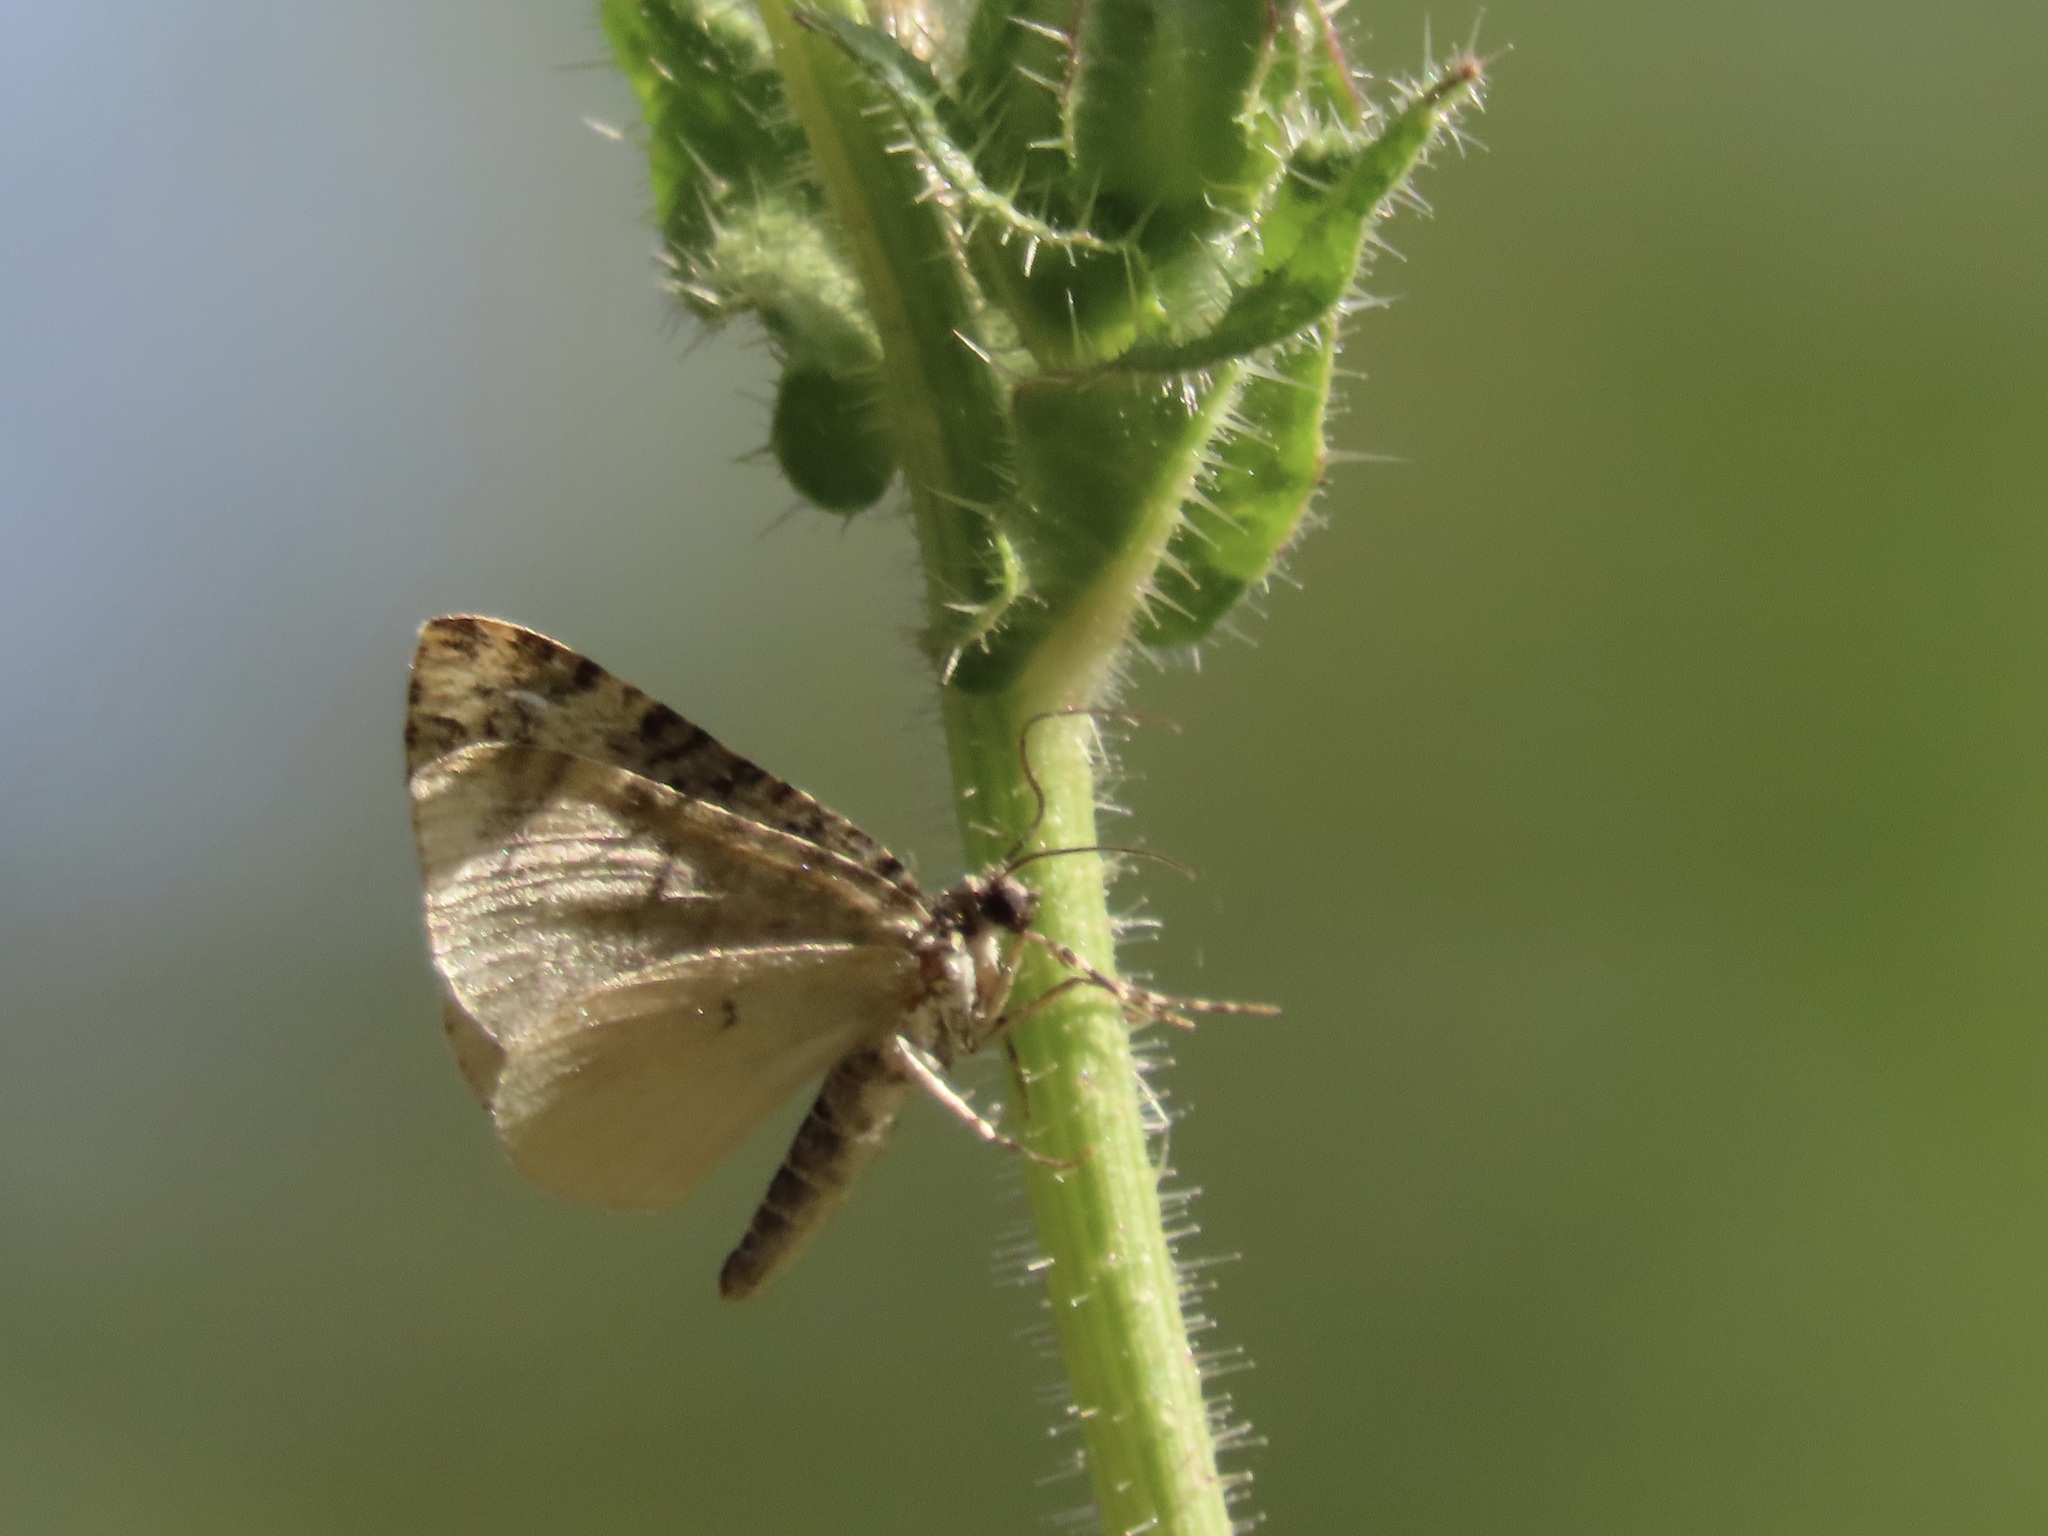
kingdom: Animalia
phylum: Arthropoda
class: Insecta
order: Lepidoptera
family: Geometridae
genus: Spargania
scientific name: Spargania magnoliata
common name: Double-banded carpet
